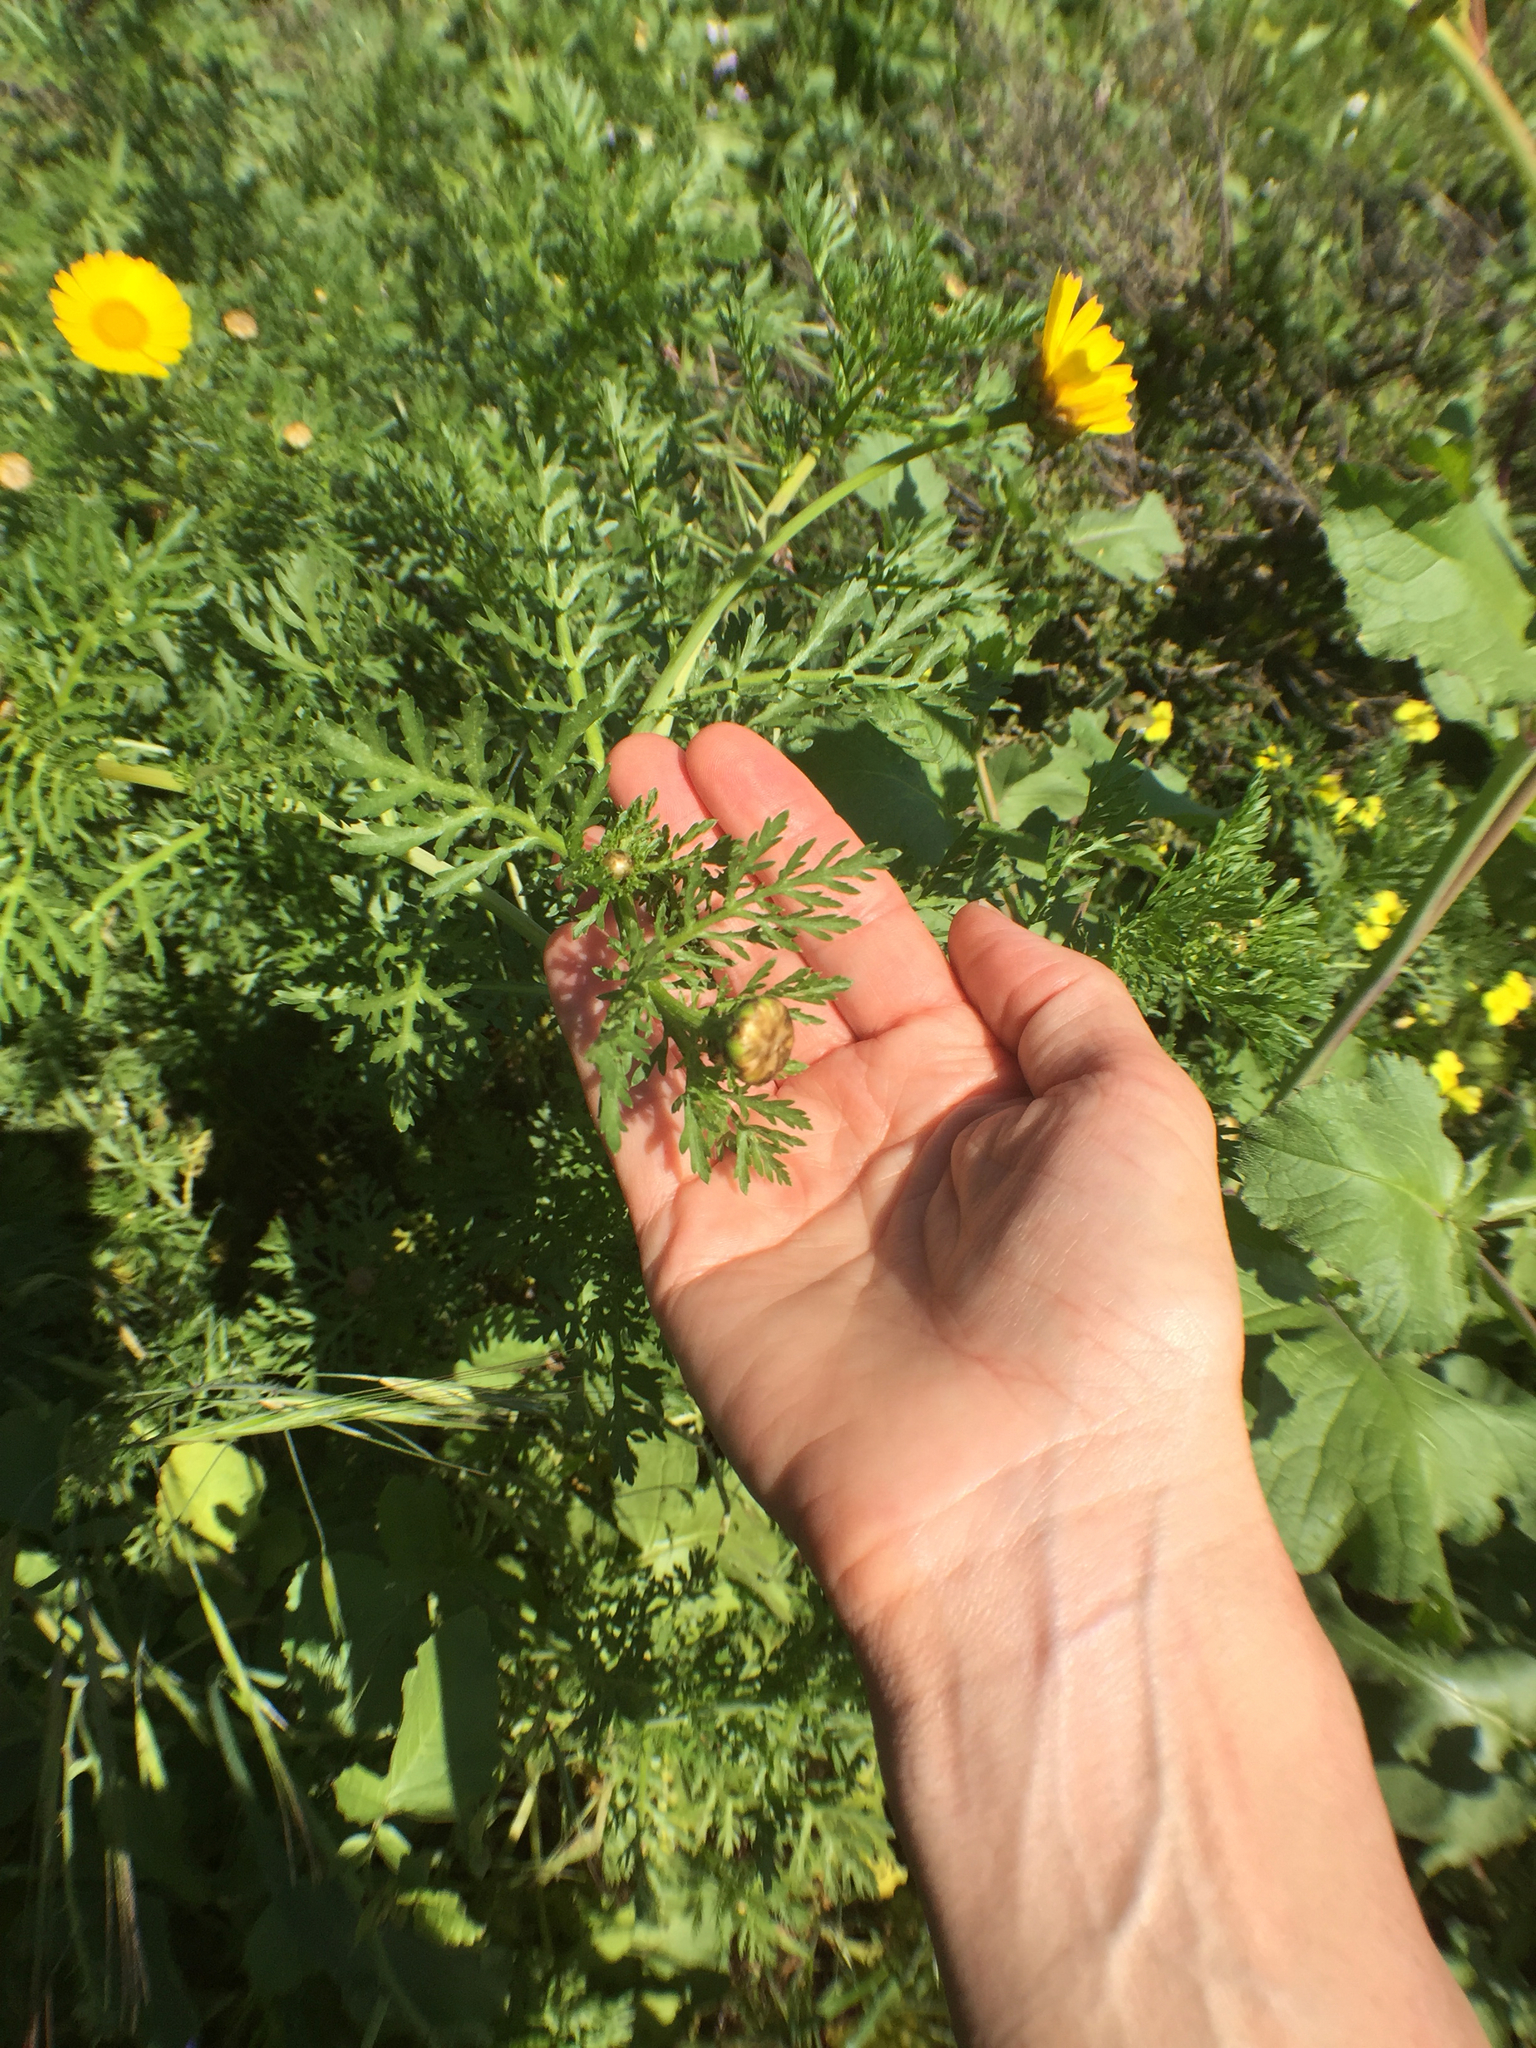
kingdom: Plantae
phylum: Tracheophyta
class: Magnoliopsida
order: Asterales
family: Asteraceae
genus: Glebionis
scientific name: Glebionis coronaria
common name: Crowndaisy
